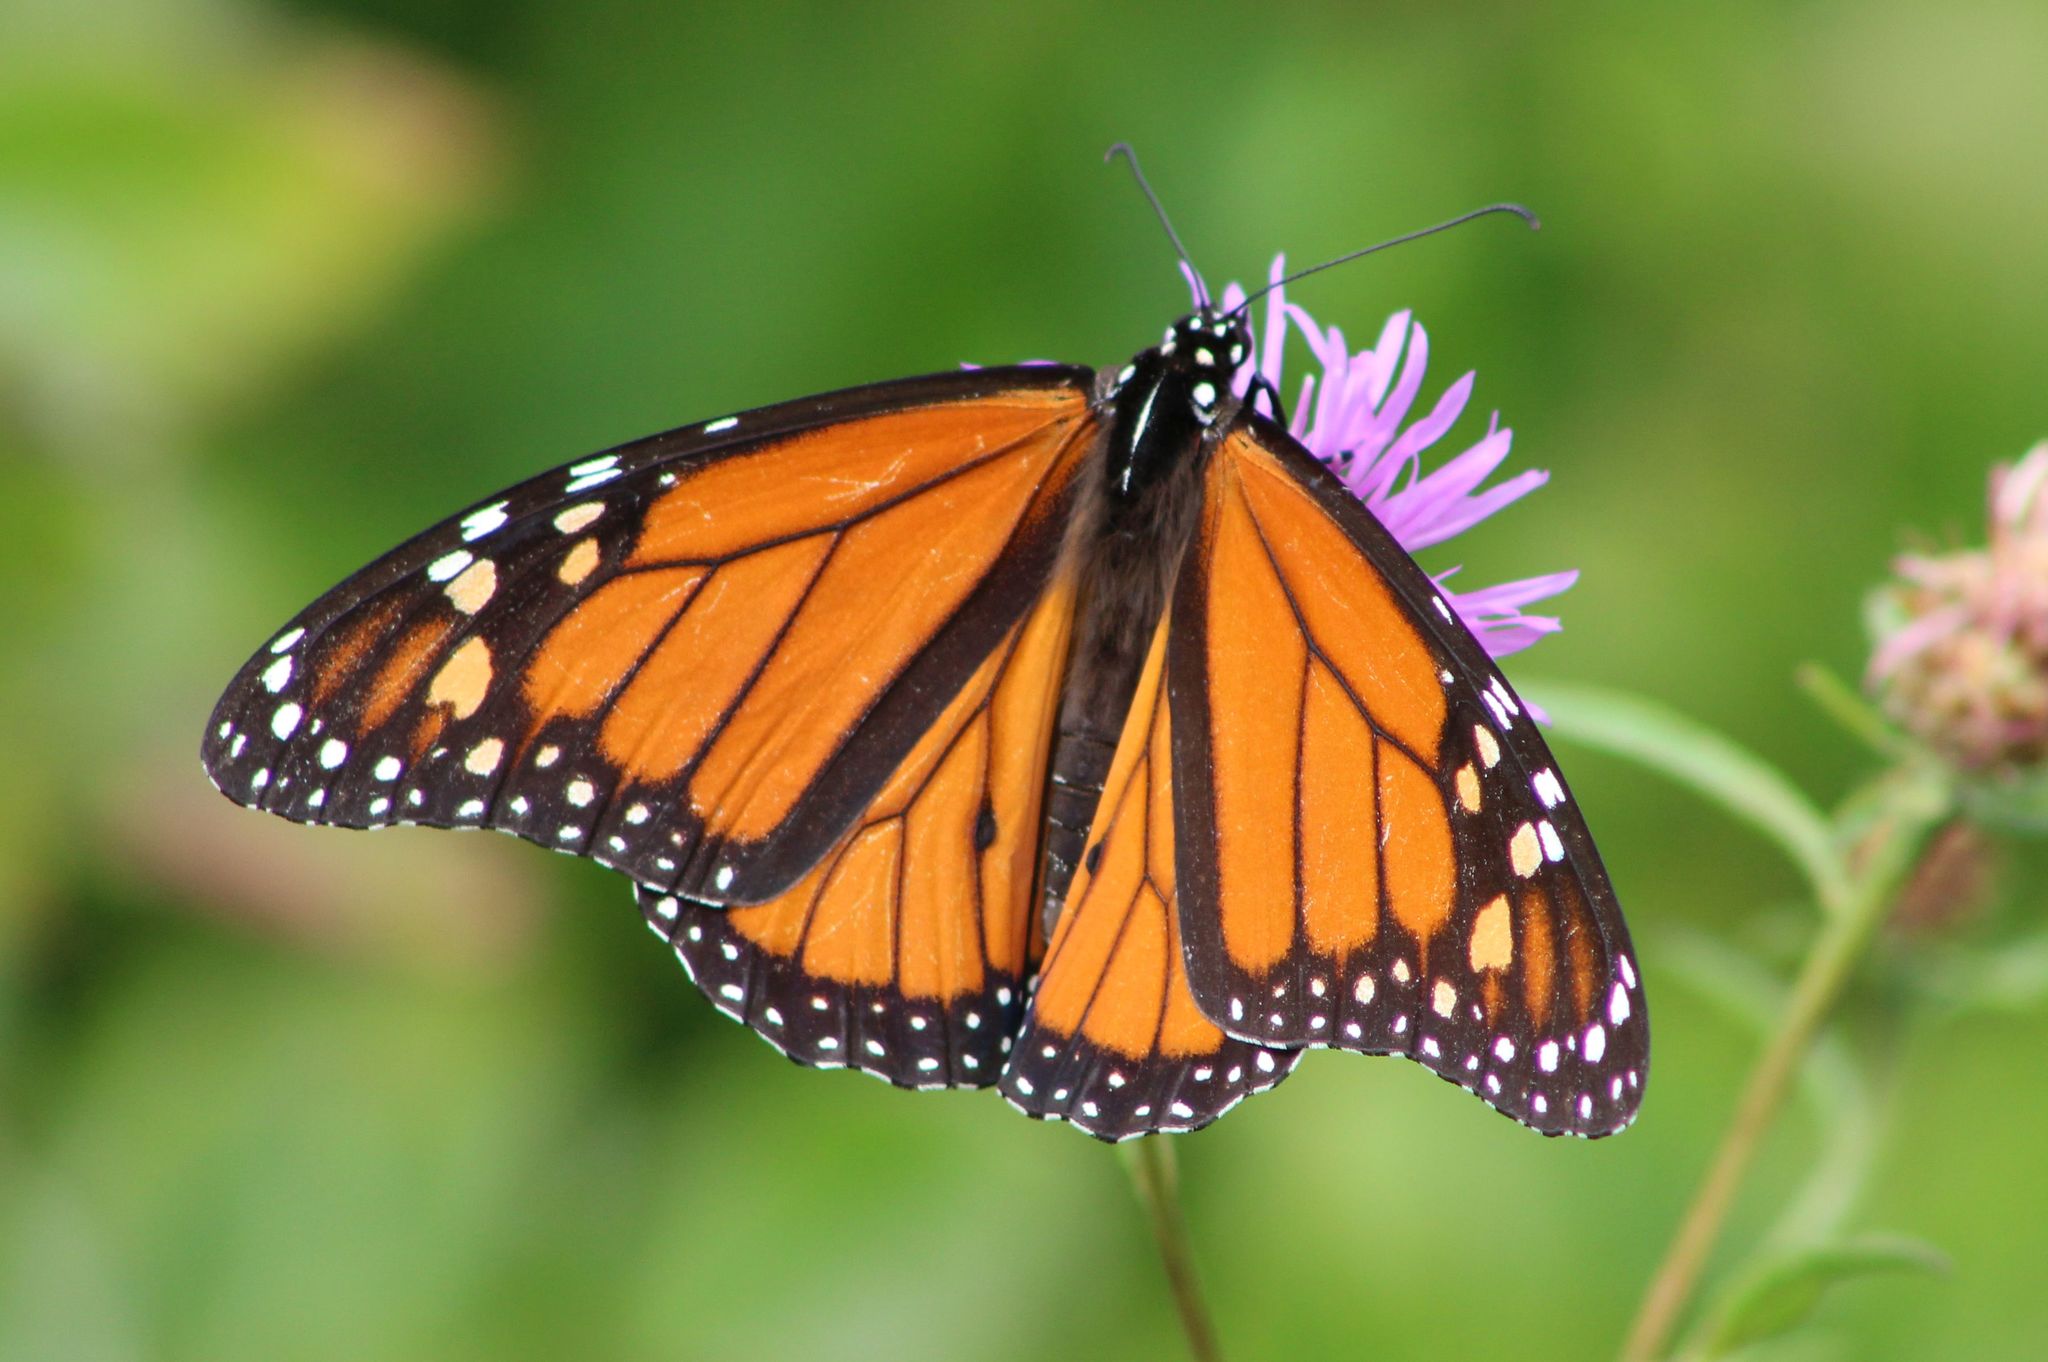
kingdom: Animalia
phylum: Arthropoda
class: Insecta
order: Lepidoptera
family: Nymphalidae
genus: Danaus
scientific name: Danaus plexippus
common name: Monarch
